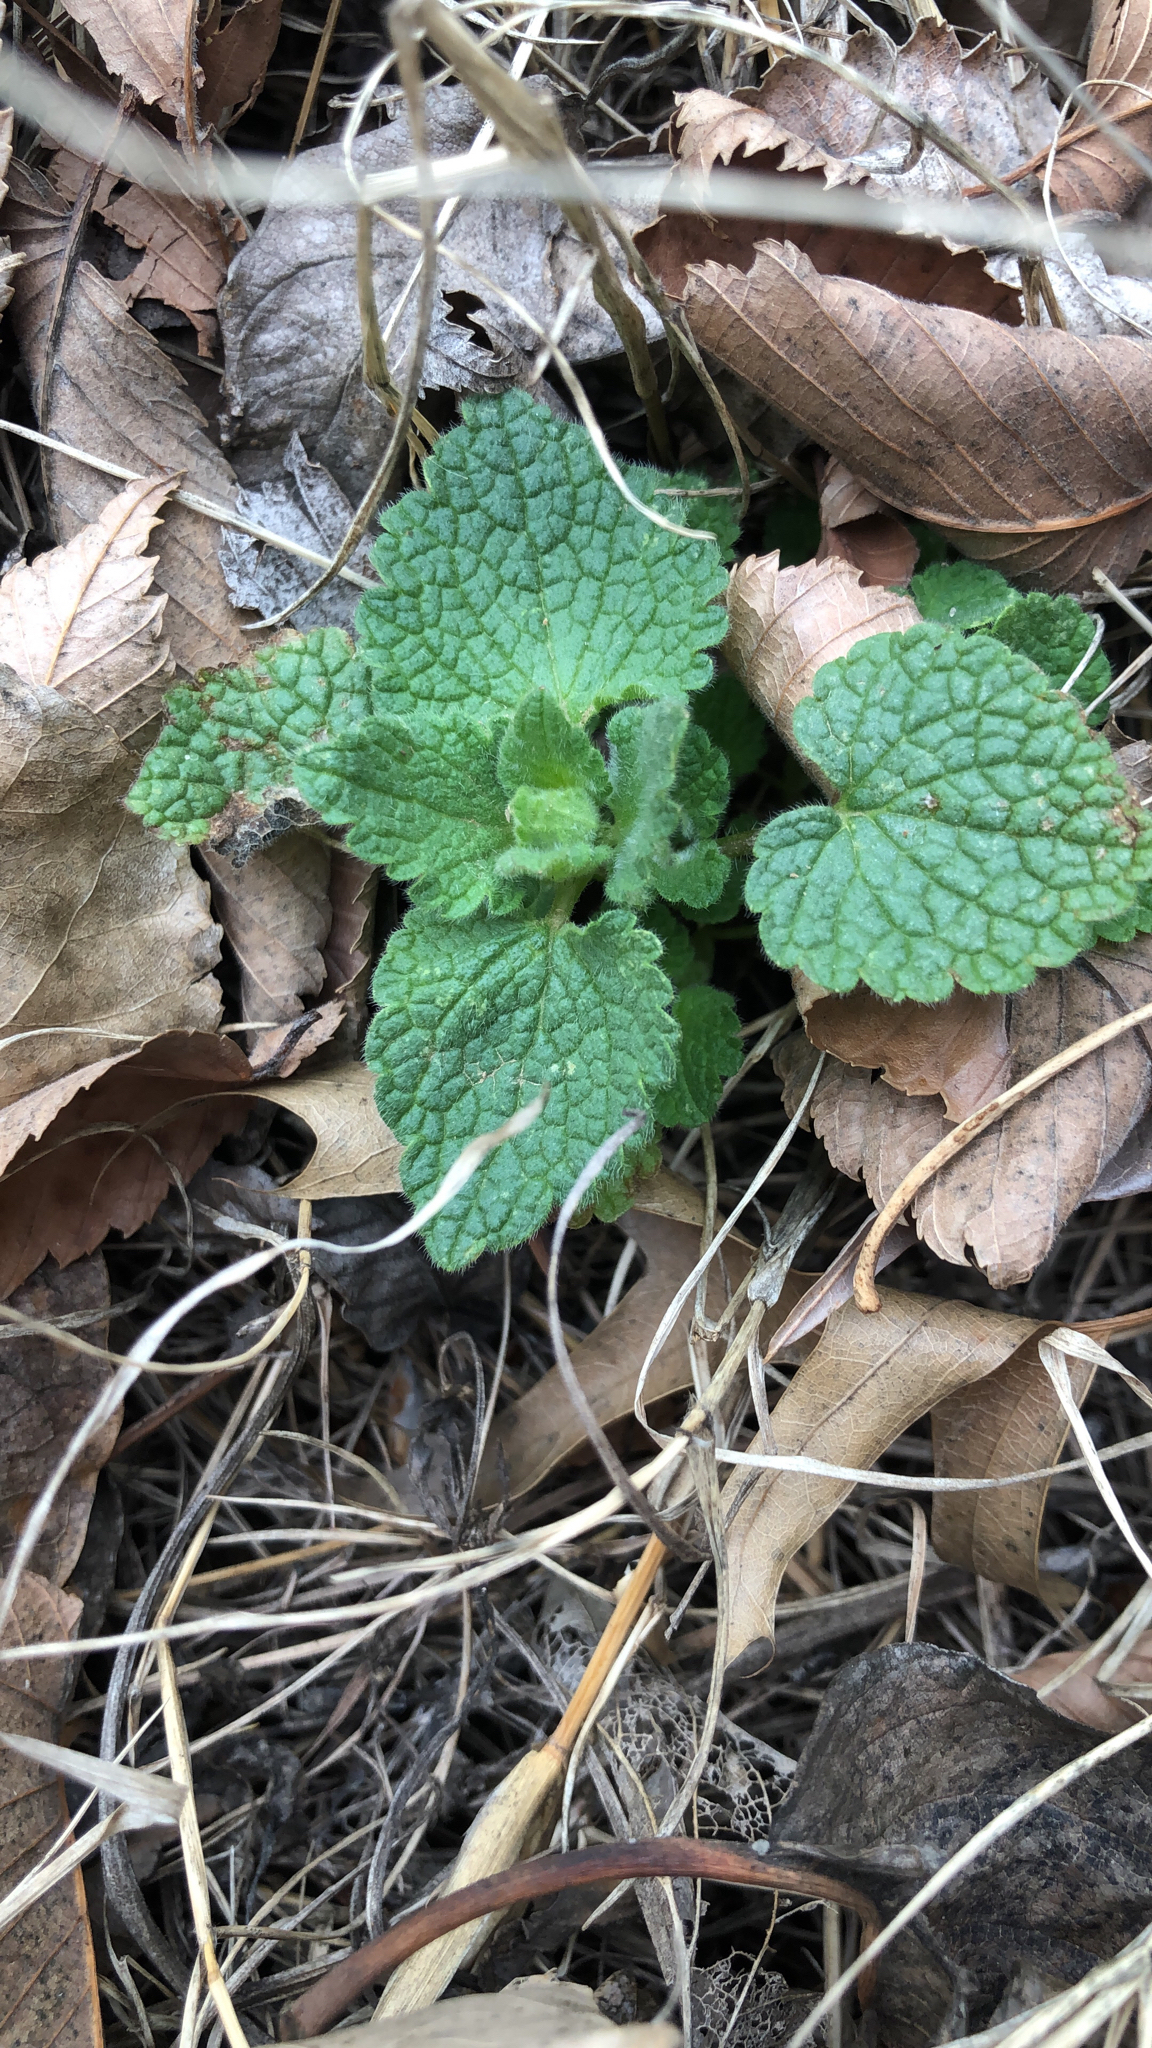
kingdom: Plantae
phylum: Tracheophyta
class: Magnoliopsida
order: Lamiales
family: Lamiaceae
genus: Lamium
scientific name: Lamium purpureum
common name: Red dead-nettle
